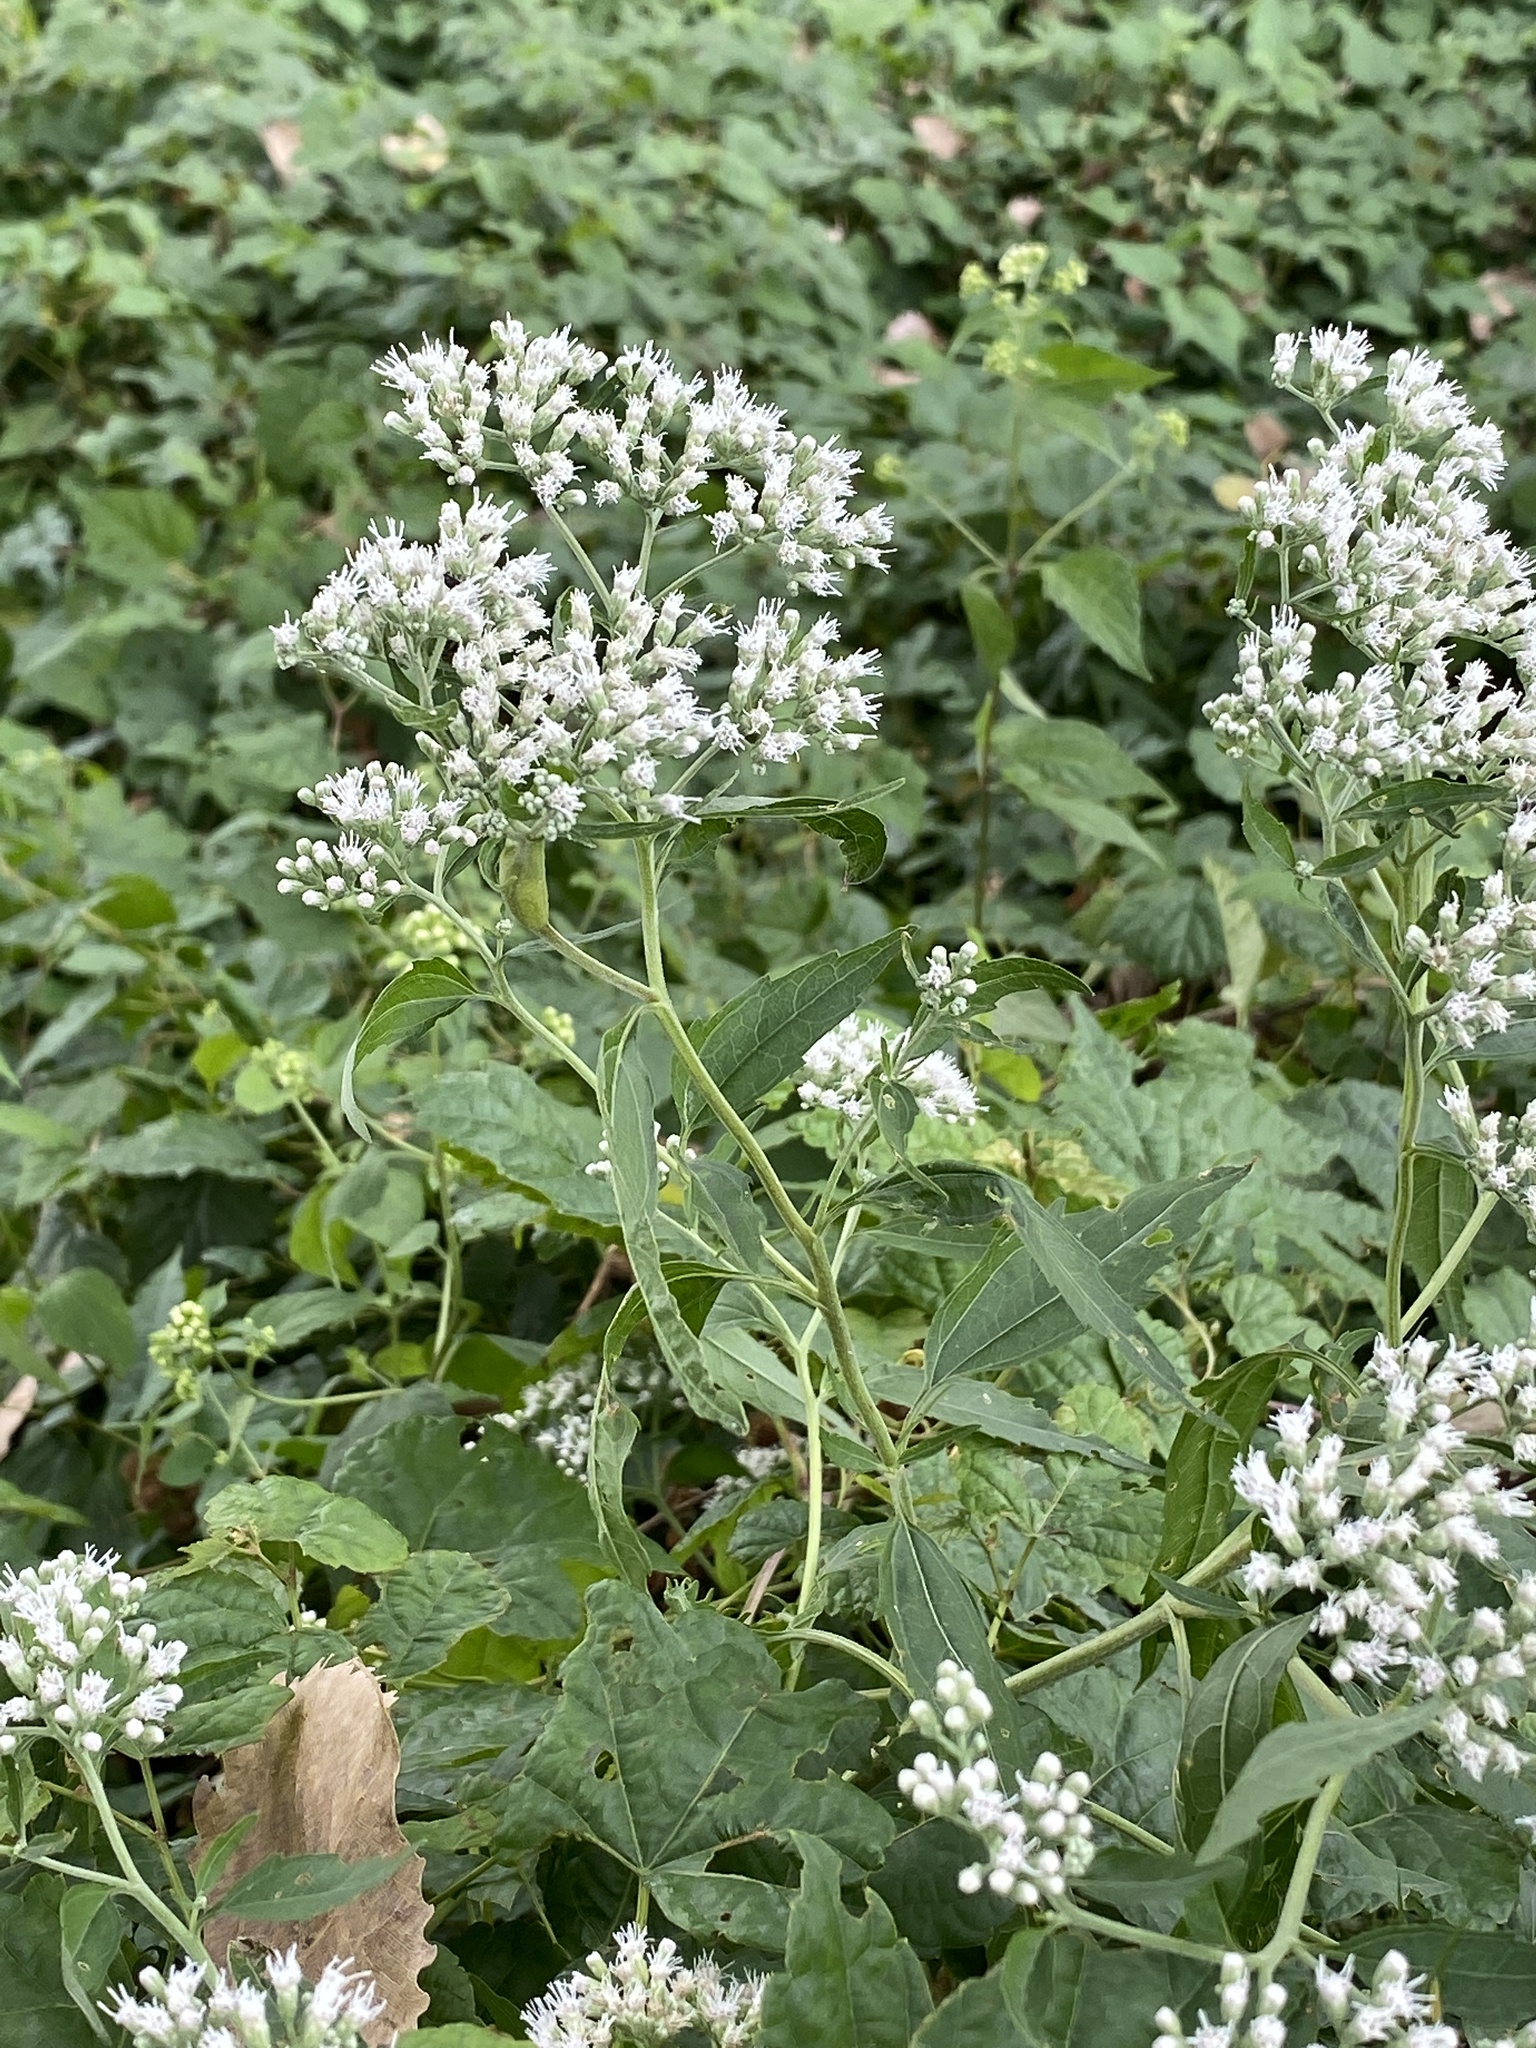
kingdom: Plantae
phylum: Tracheophyta
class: Magnoliopsida
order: Asterales
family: Asteraceae
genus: Eupatorium
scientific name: Eupatorium serotinum
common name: Late boneset
